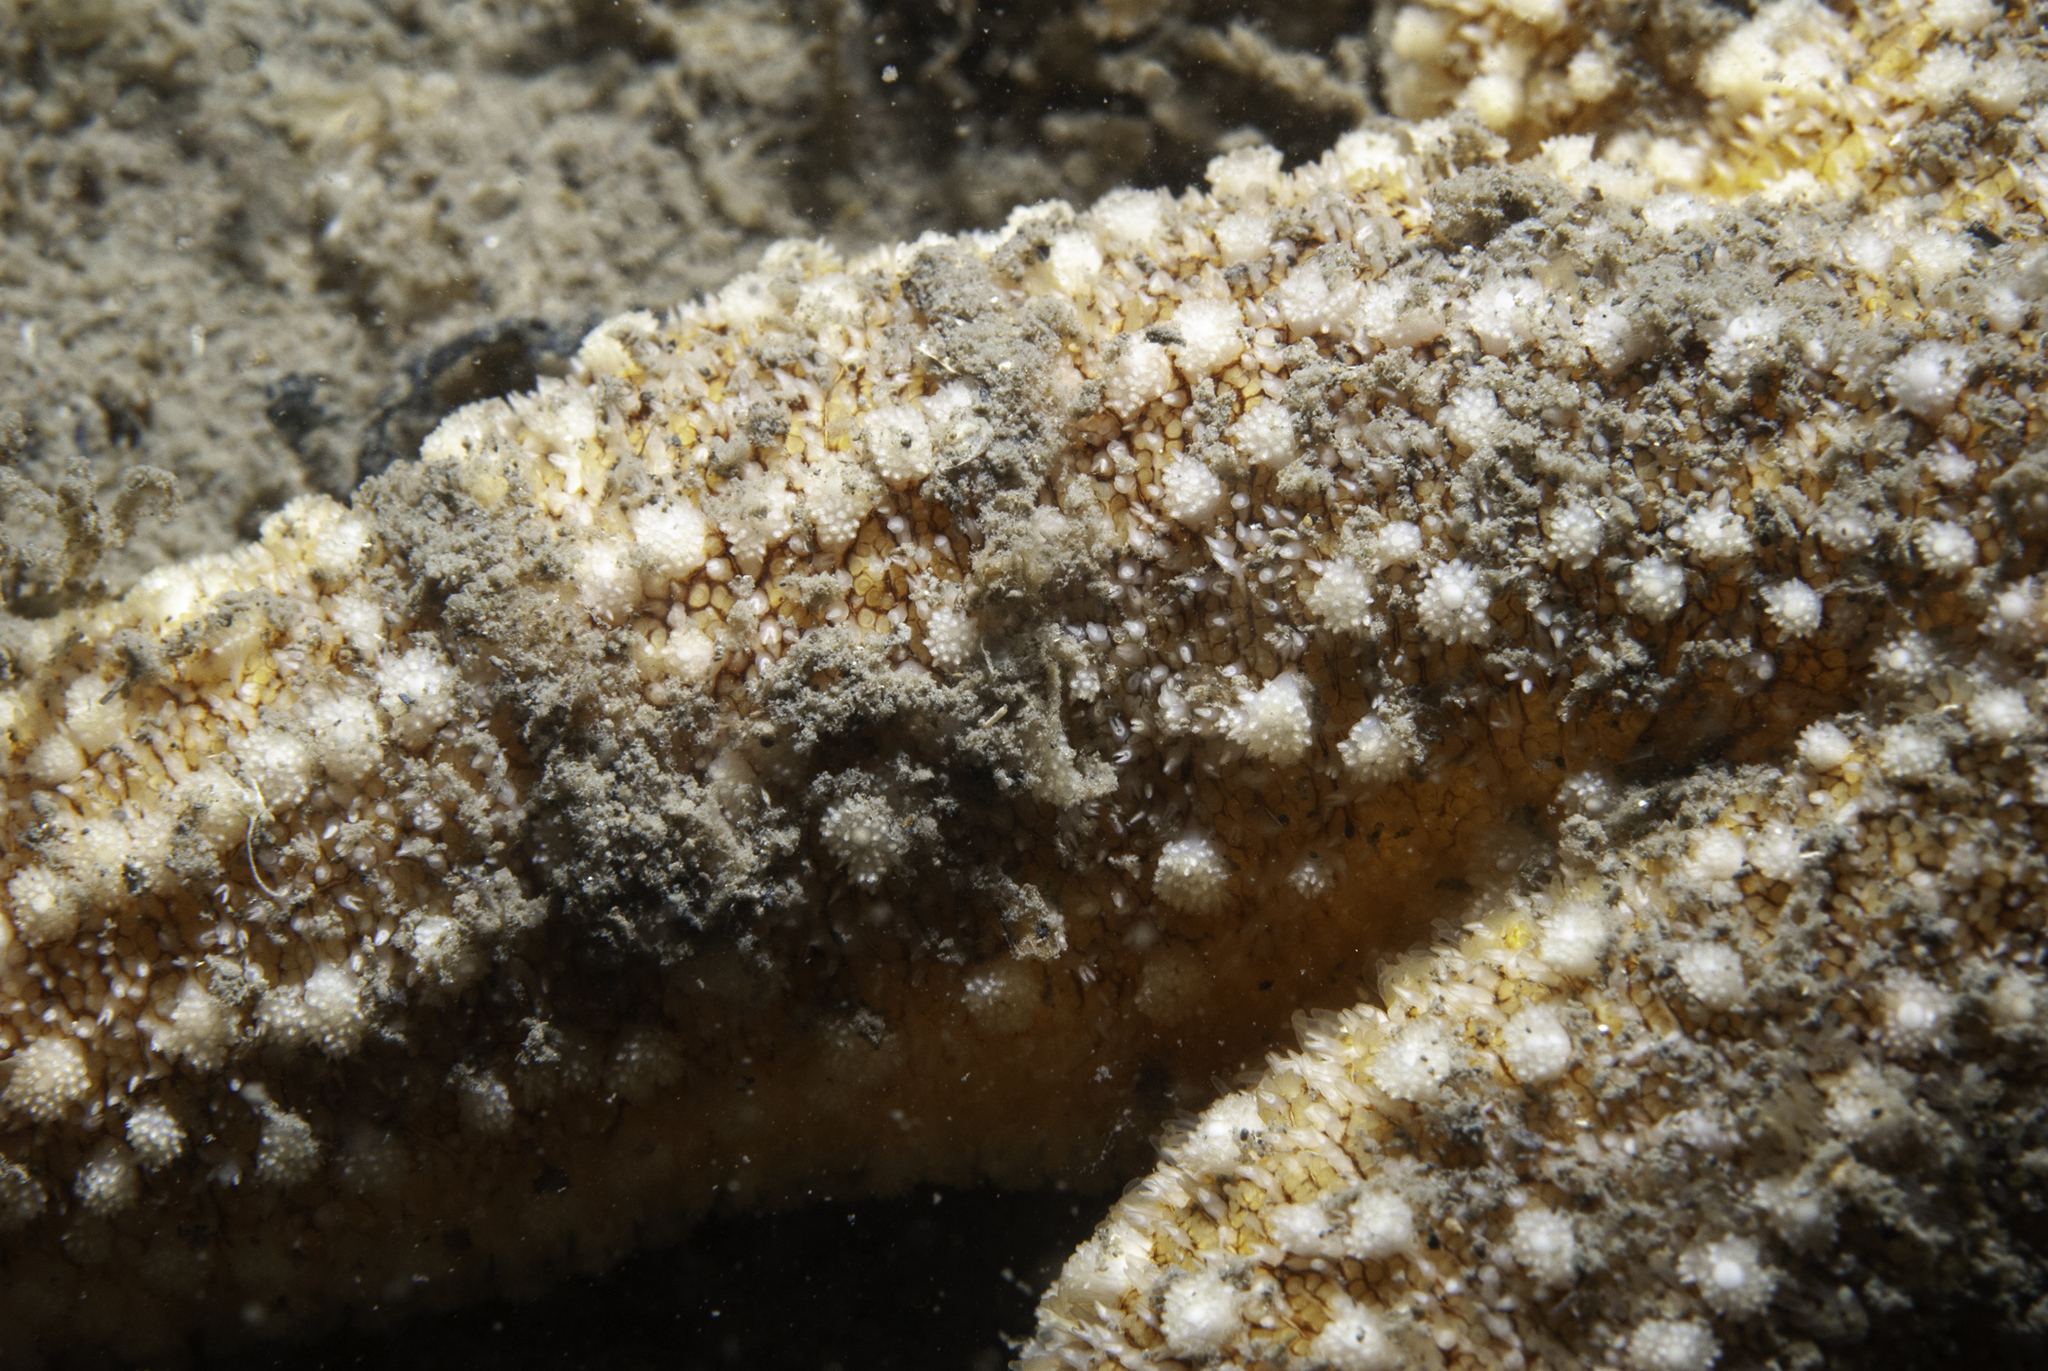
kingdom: Animalia
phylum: Echinodermata
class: Asteroidea
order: Forcipulatida
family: Asteriidae
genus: Asterias
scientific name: Asterias rubens
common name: Common starfish
